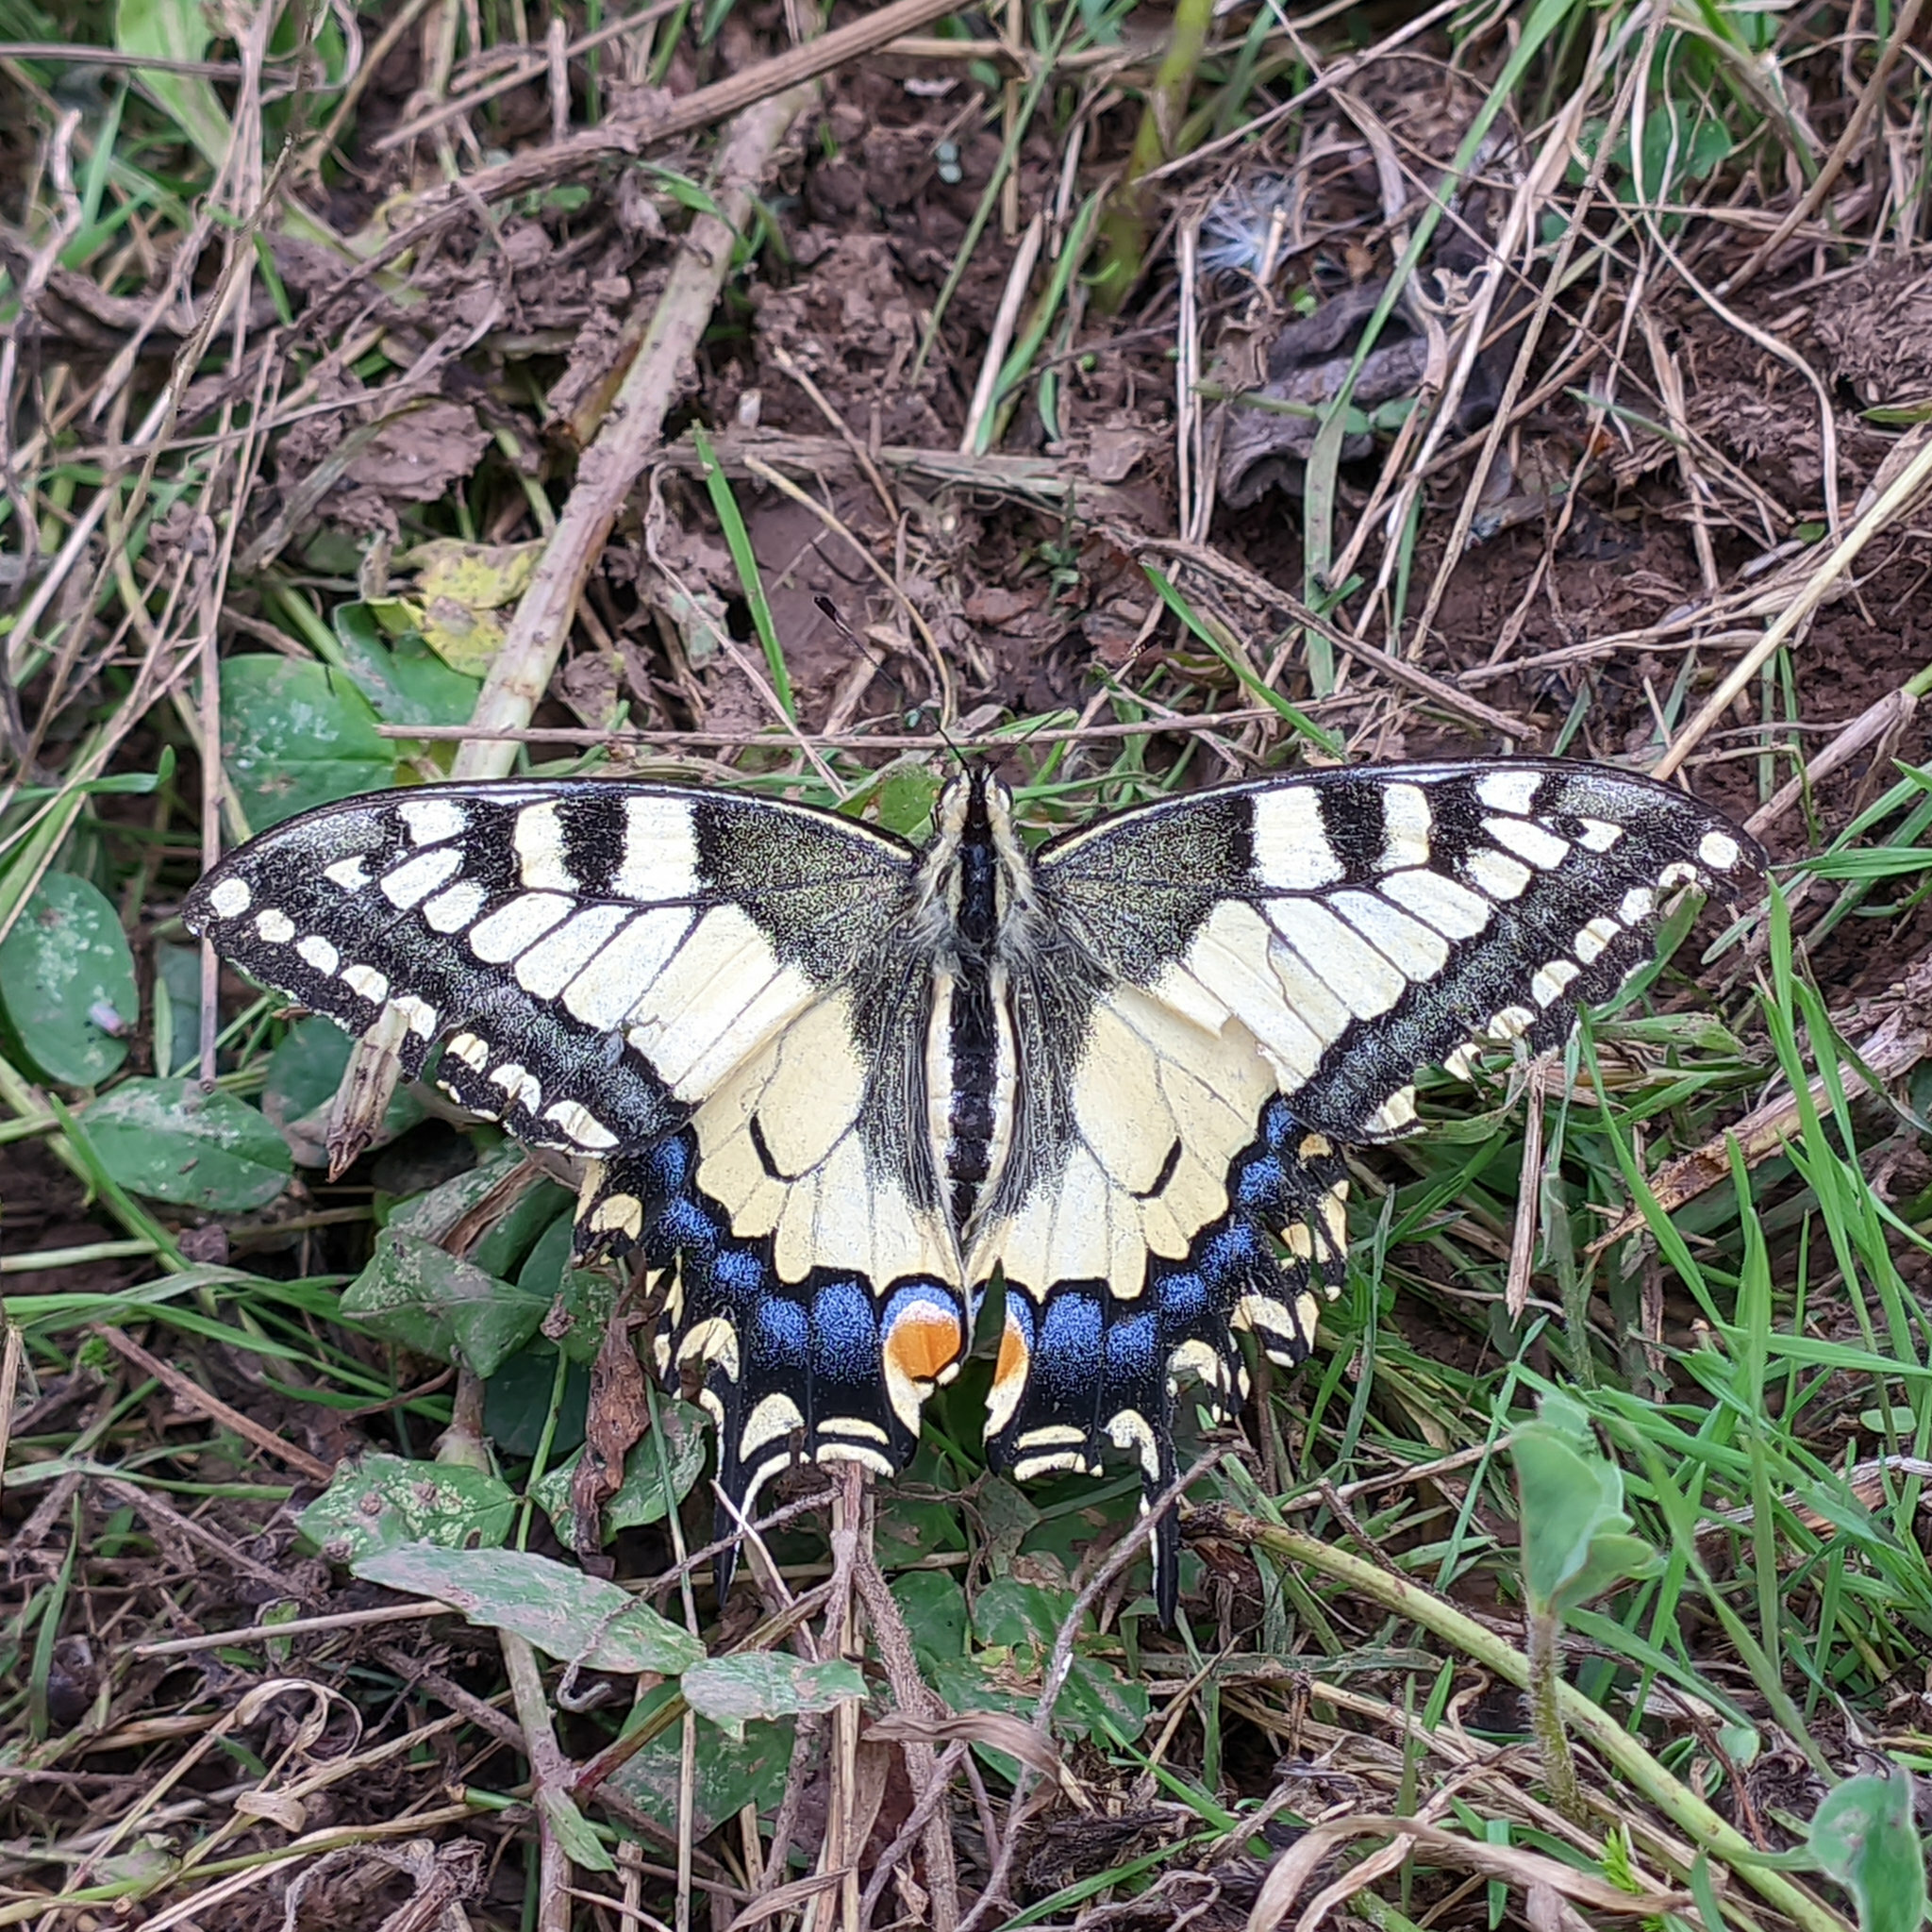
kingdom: Animalia
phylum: Arthropoda
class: Insecta
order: Lepidoptera
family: Papilionidae
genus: Papilio
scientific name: Papilio machaon
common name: Swallowtail
